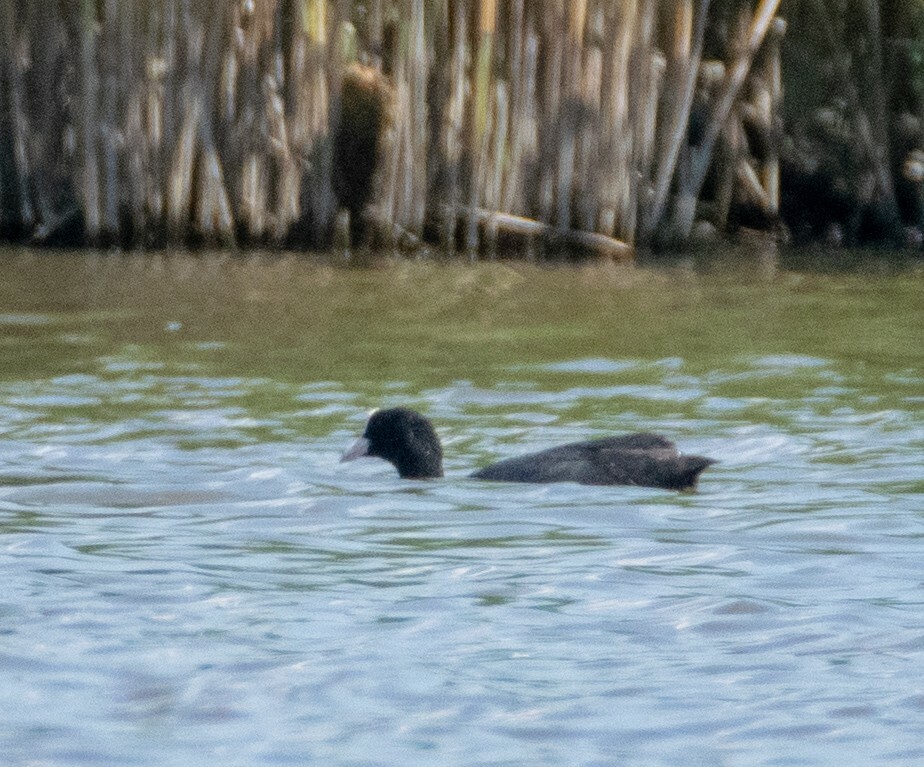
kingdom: Animalia
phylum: Chordata
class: Aves
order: Gruiformes
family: Rallidae
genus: Fulica
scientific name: Fulica atra
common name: Eurasian coot
